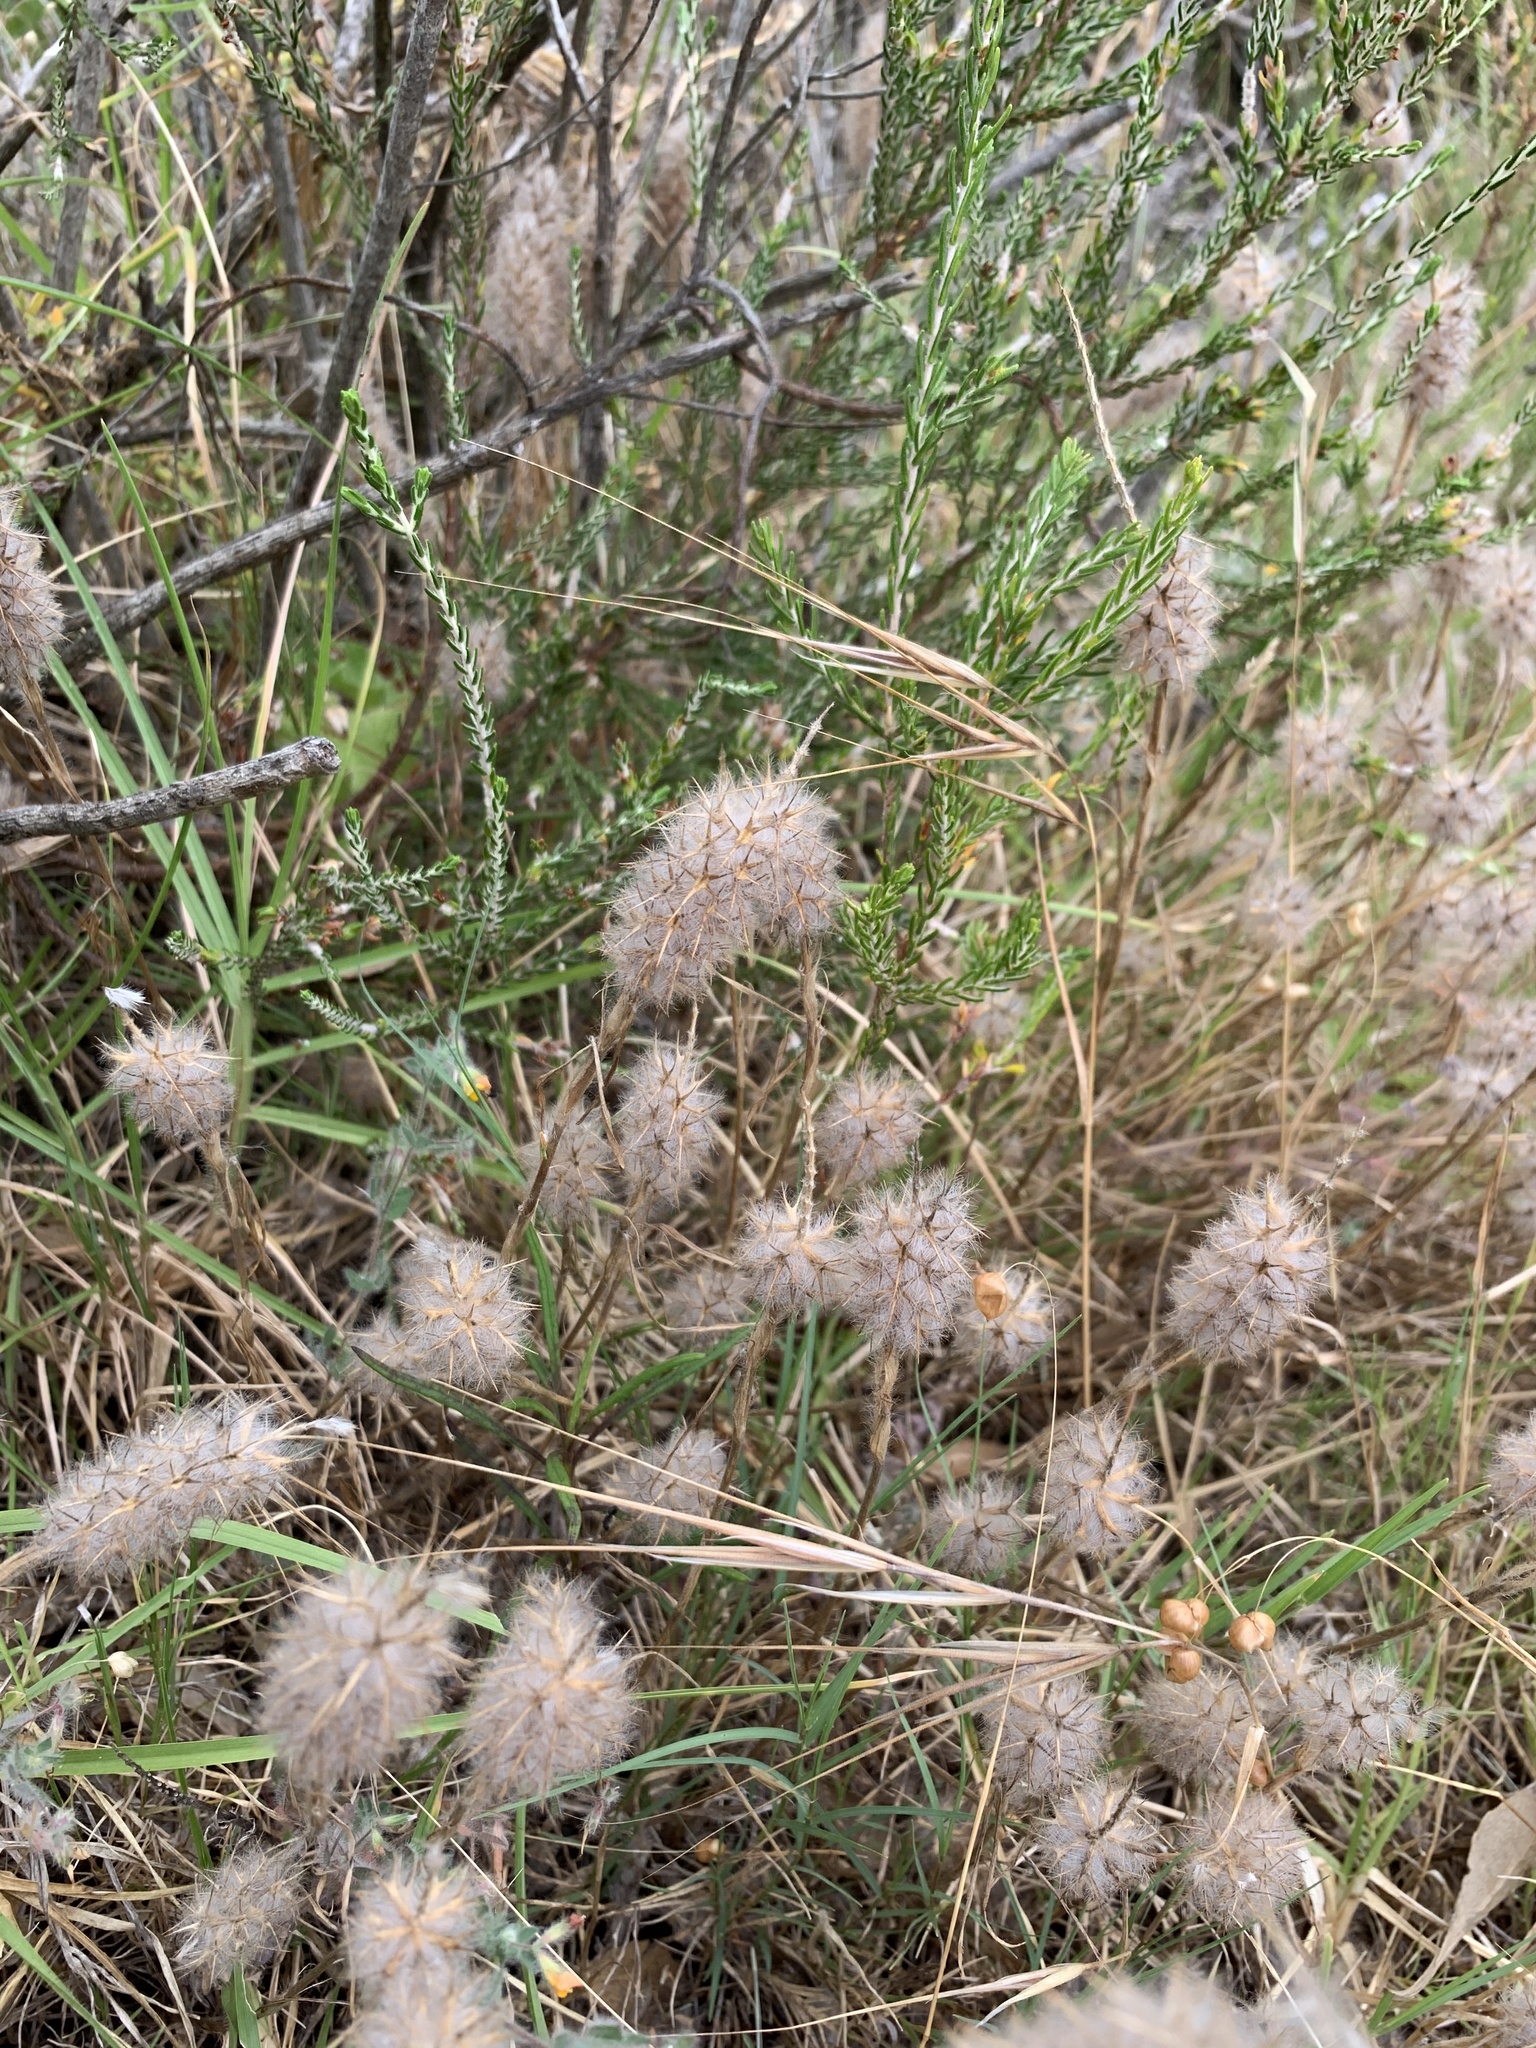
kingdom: Plantae
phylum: Tracheophyta
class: Magnoliopsida
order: Fabales
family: Fabaceae
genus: Trifolium
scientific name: Trifolium angustifolium
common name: Narrow clover
